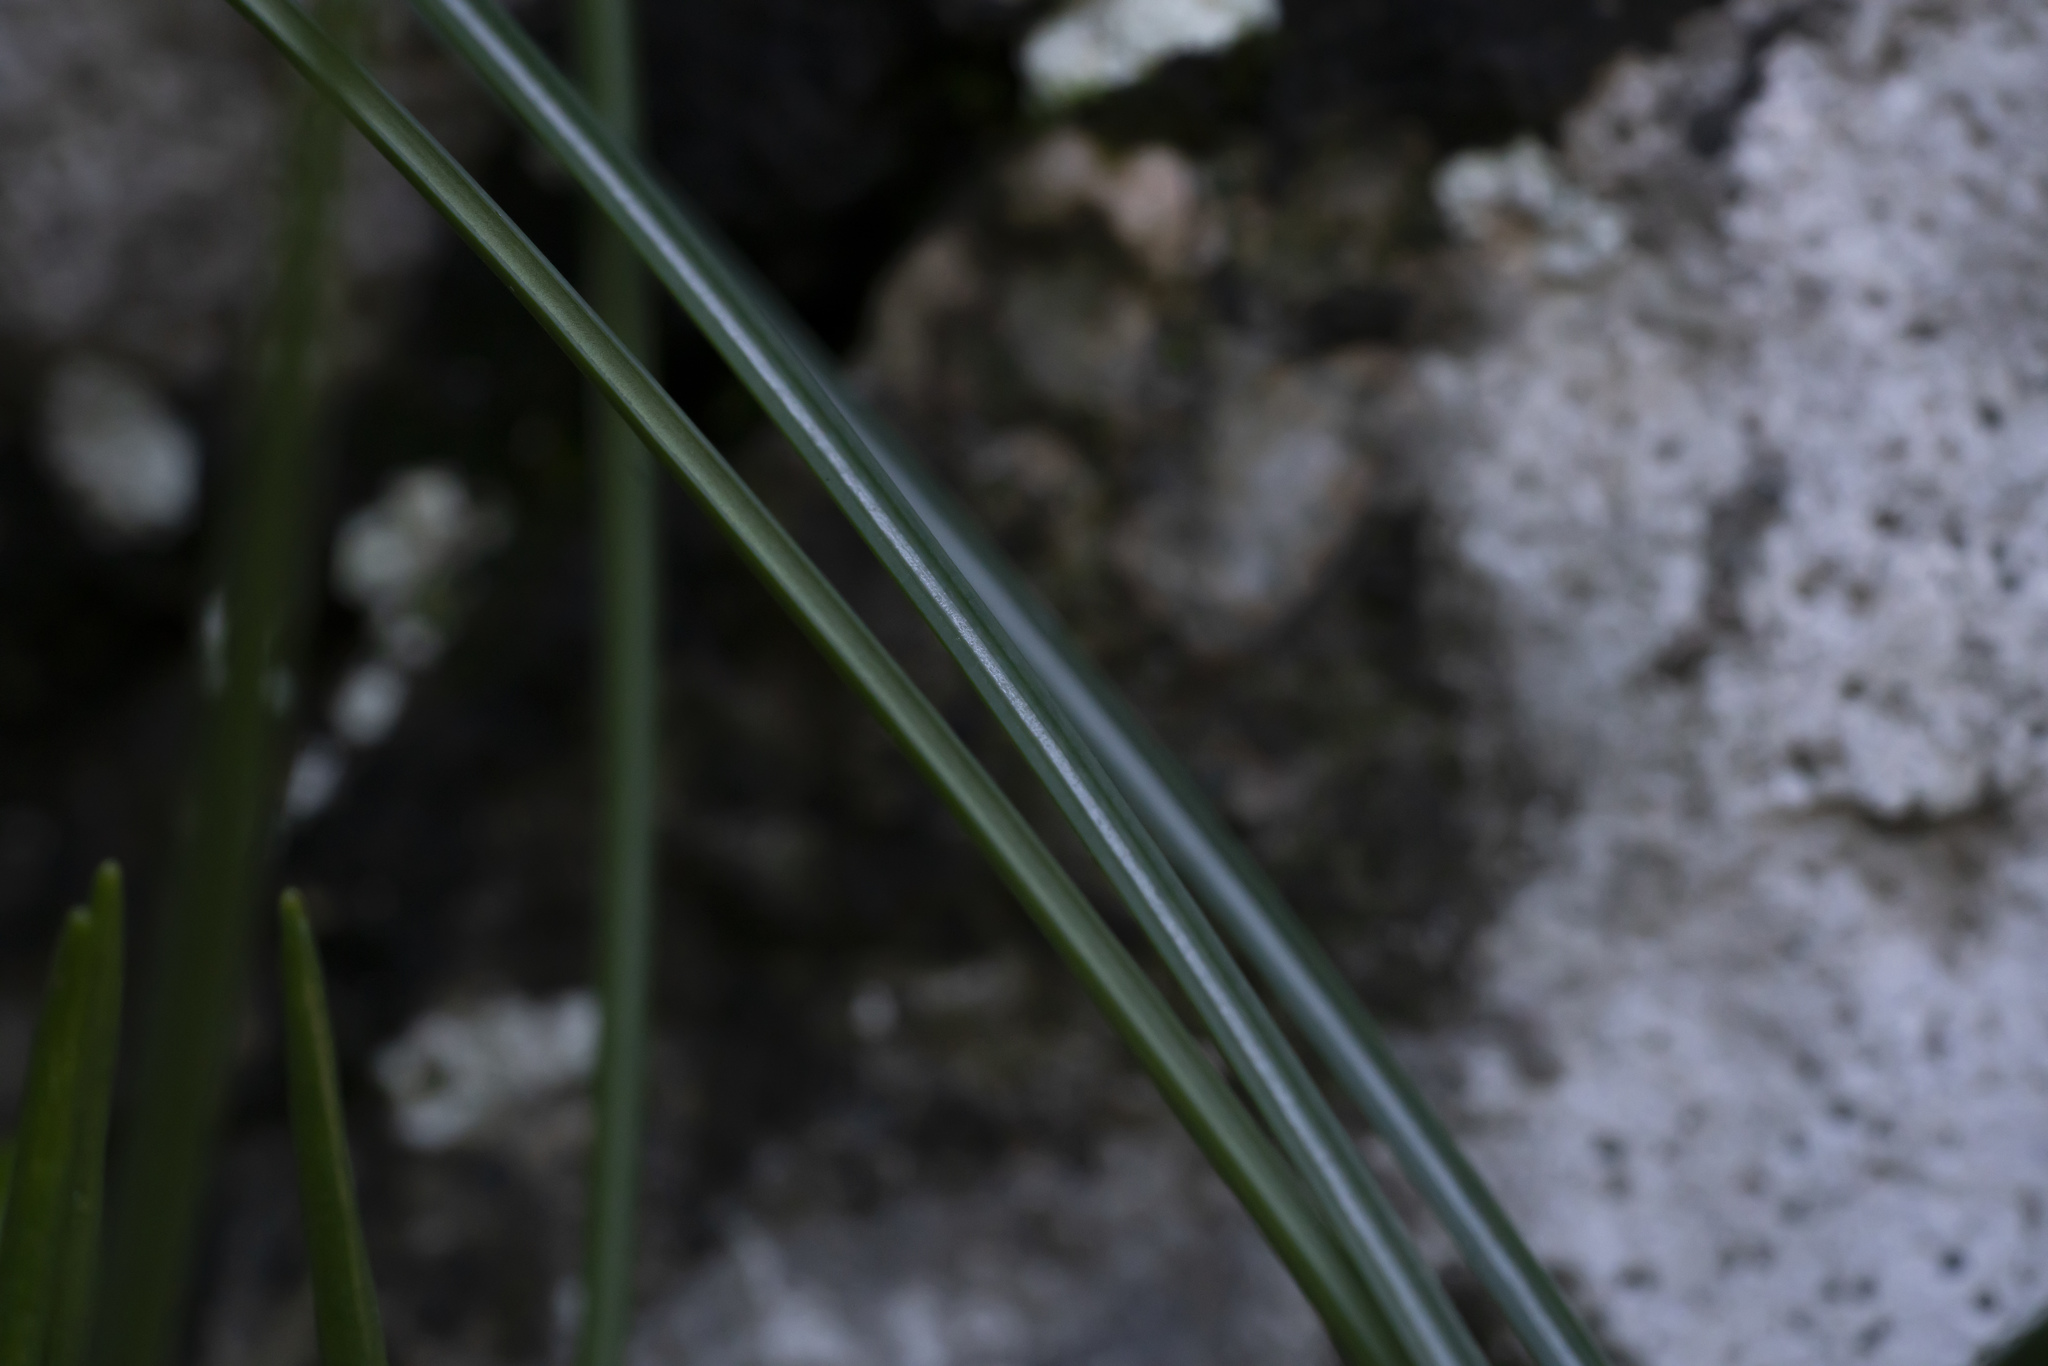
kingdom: Plantae
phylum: Tracheophyta
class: Liliopsida
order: Asparagales
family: Iridaceae
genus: Crocus
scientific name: Crocus
